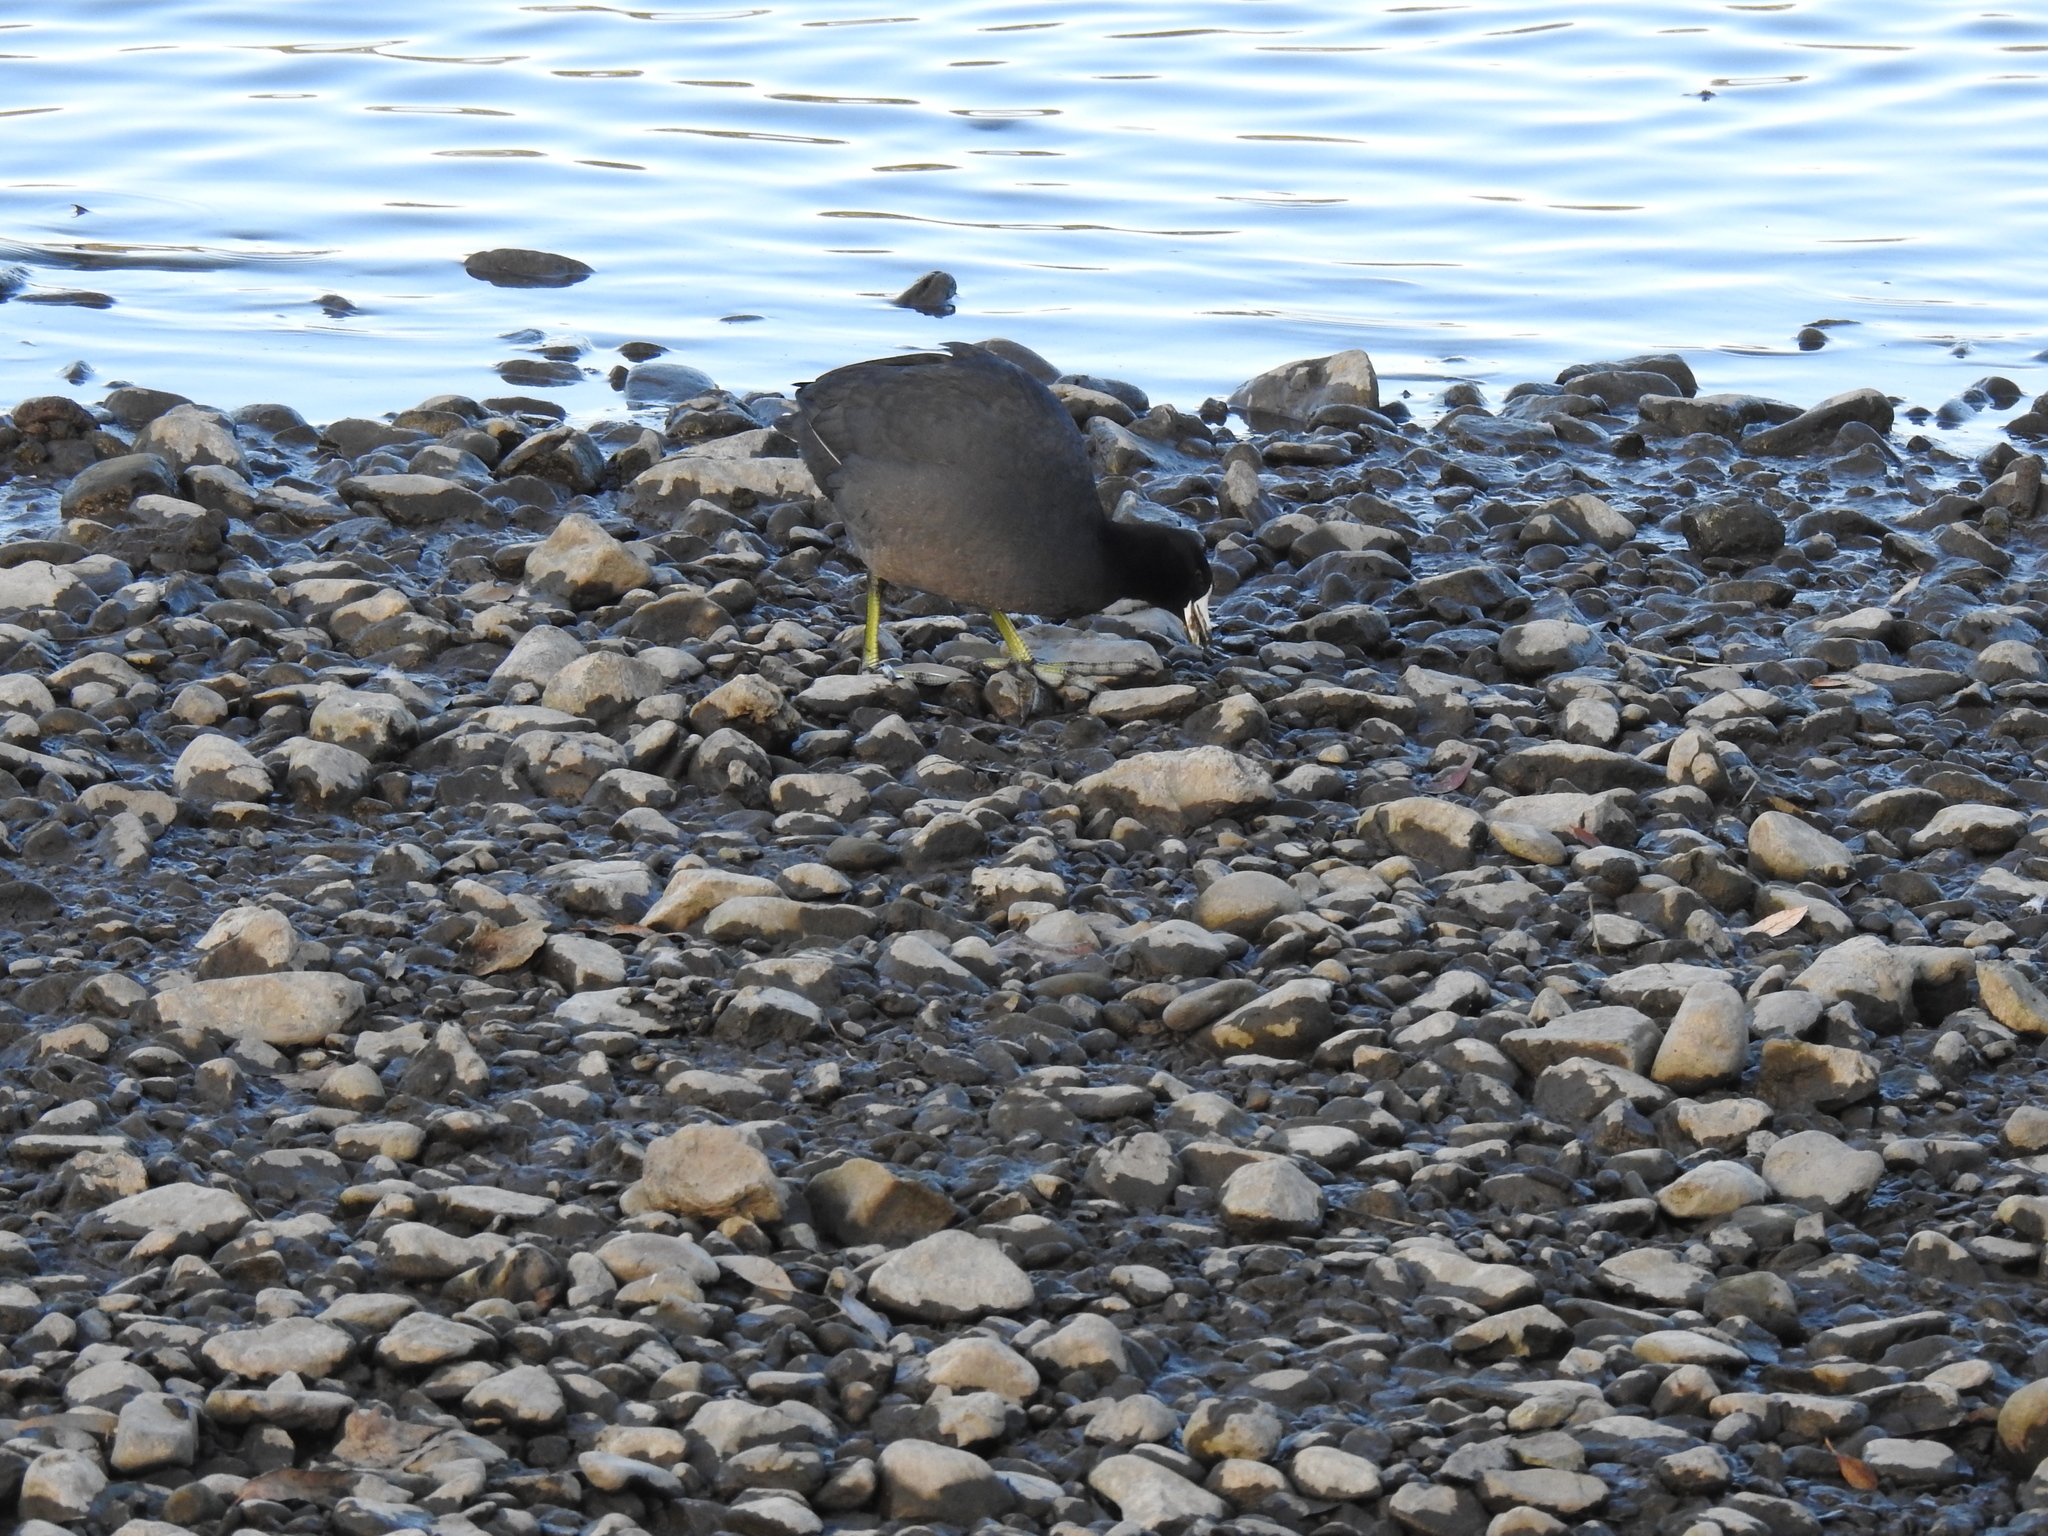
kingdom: Animalia
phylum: Chordata
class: Aves
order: Gruiformes
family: Rallidae
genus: Fulica
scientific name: Fulica americana
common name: American coot
